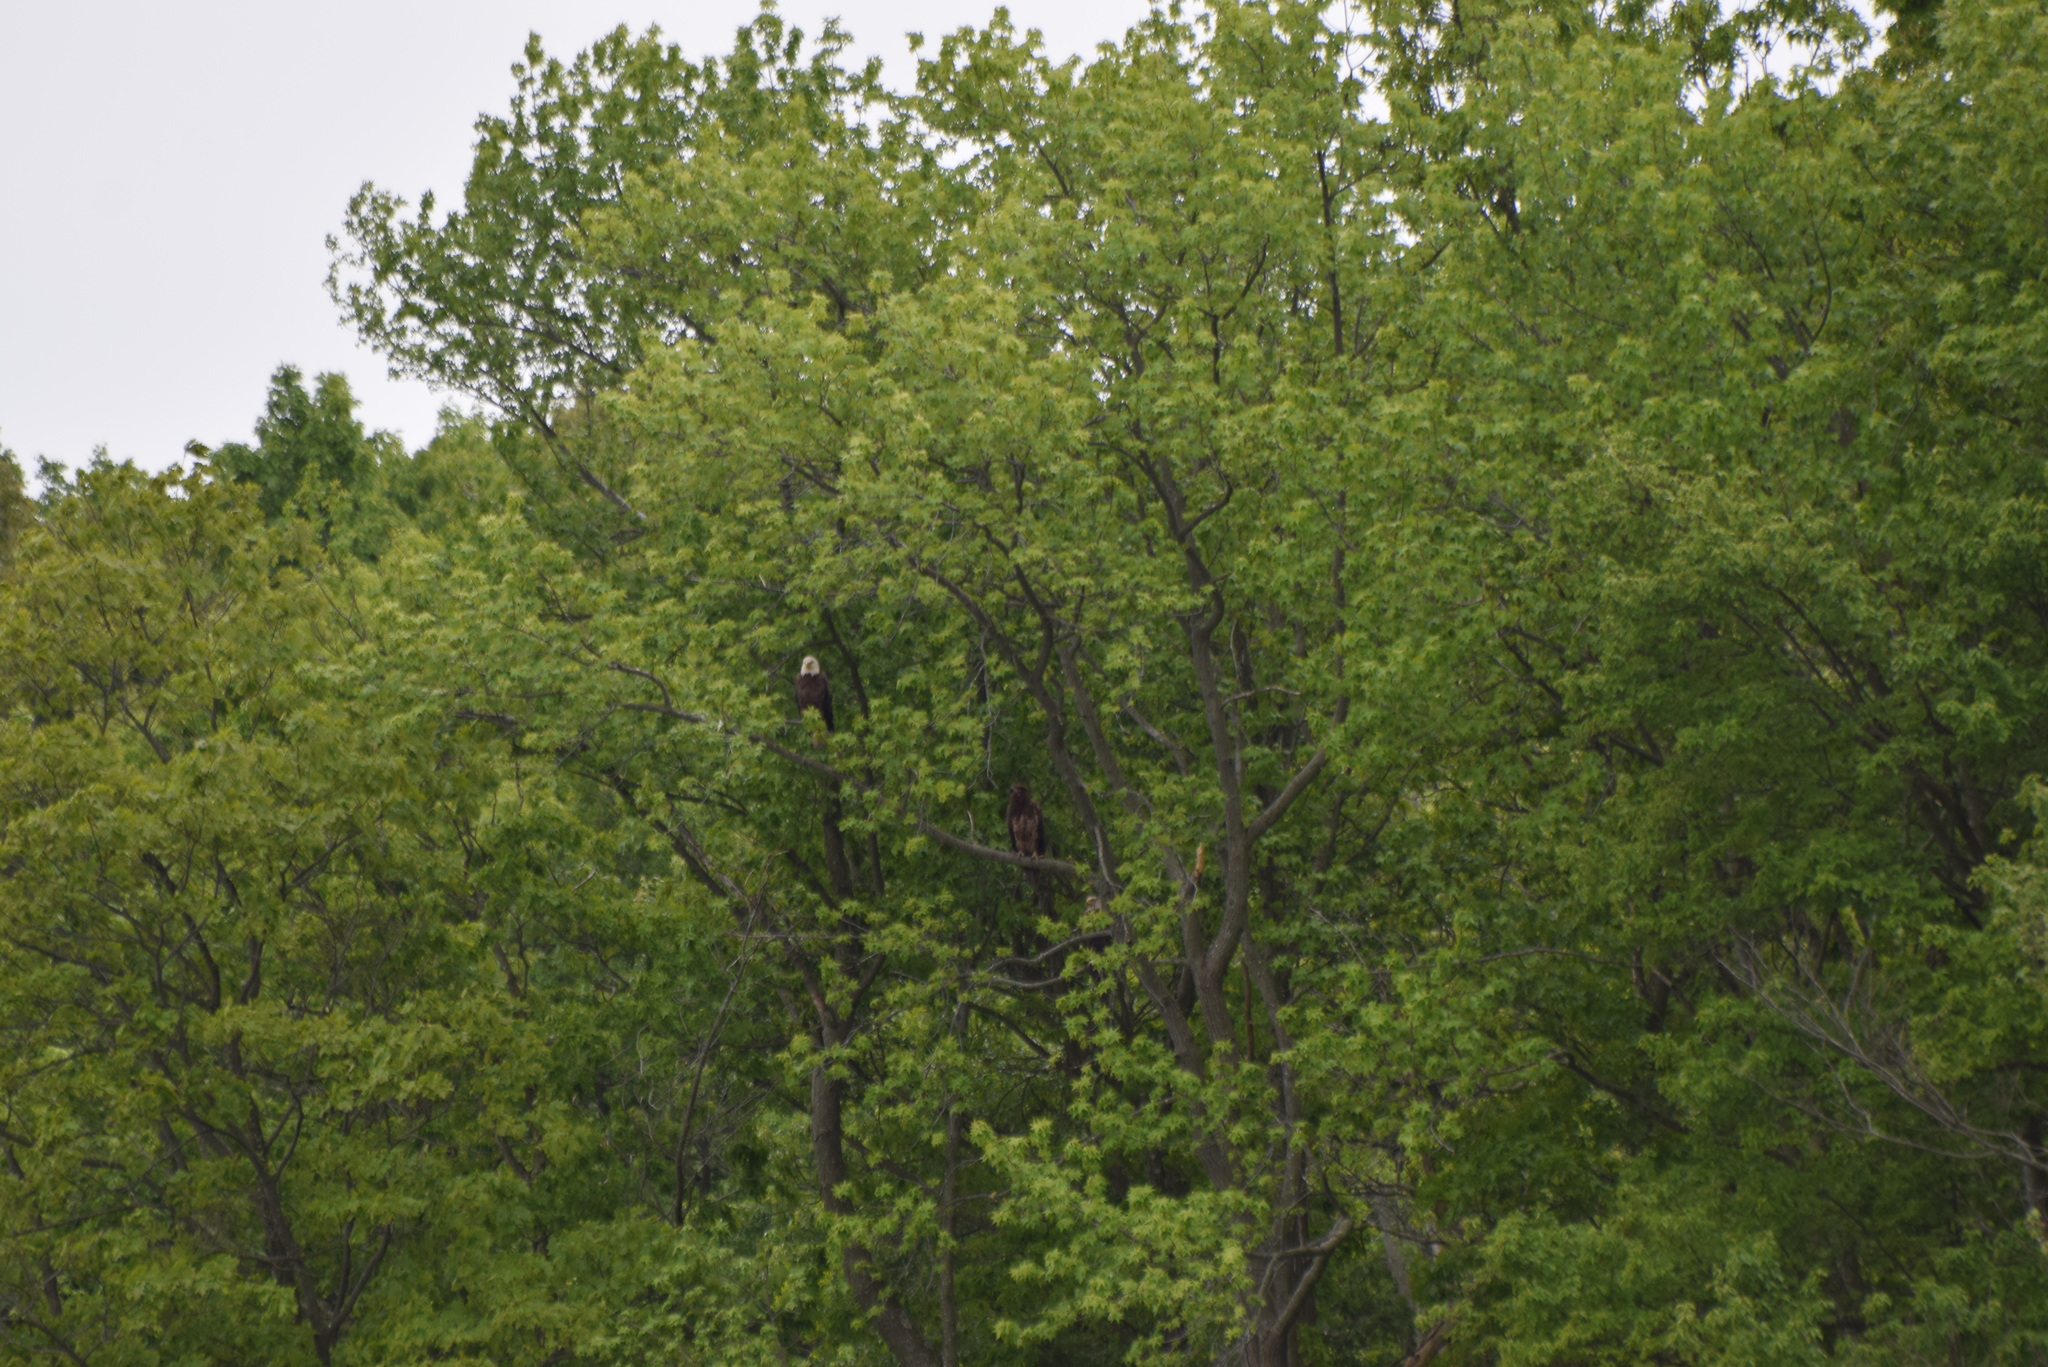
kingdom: Animalia
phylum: Chordata
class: Aves
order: Accipitriformes
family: Accipitridae
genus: Haliaeetus
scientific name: Haliaeetus leucocephalus
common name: Bald eagle
